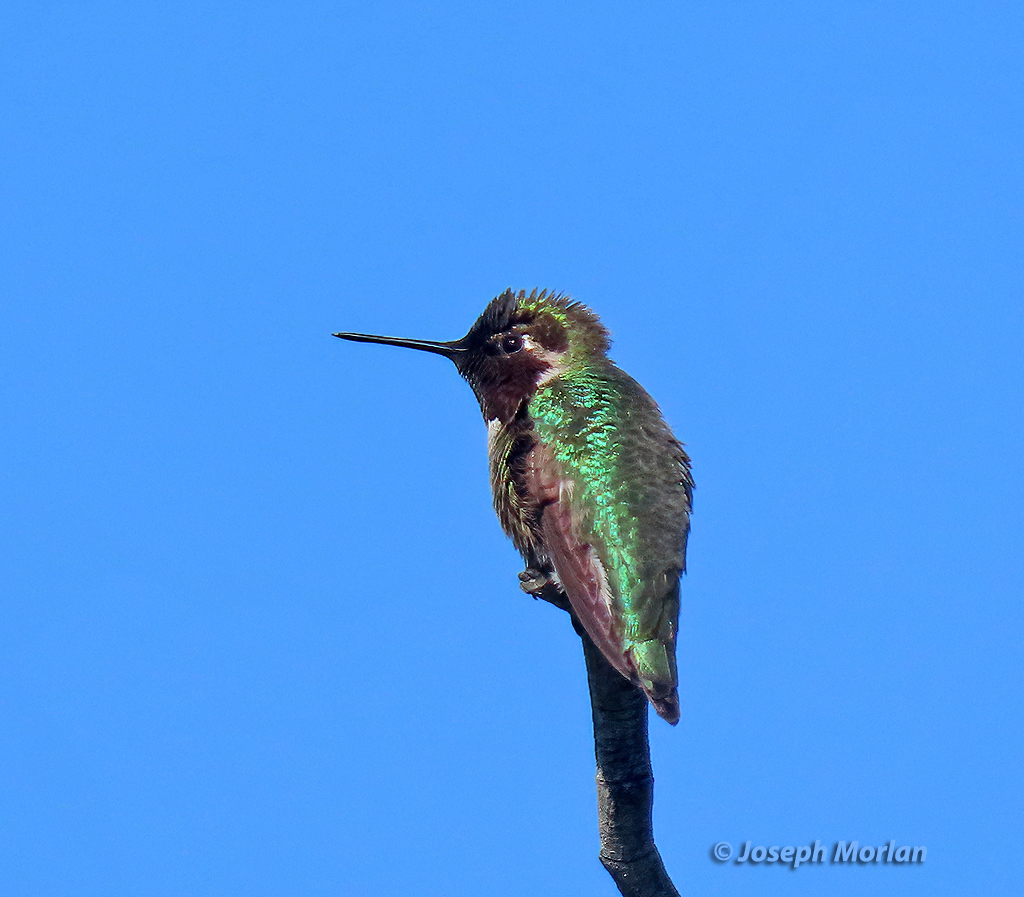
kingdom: Animalia
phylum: Chordata
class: Aves
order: Apodiformes
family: Trochilidae
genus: Calypte
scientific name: Calypte anna
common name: Anna's hummingbird
